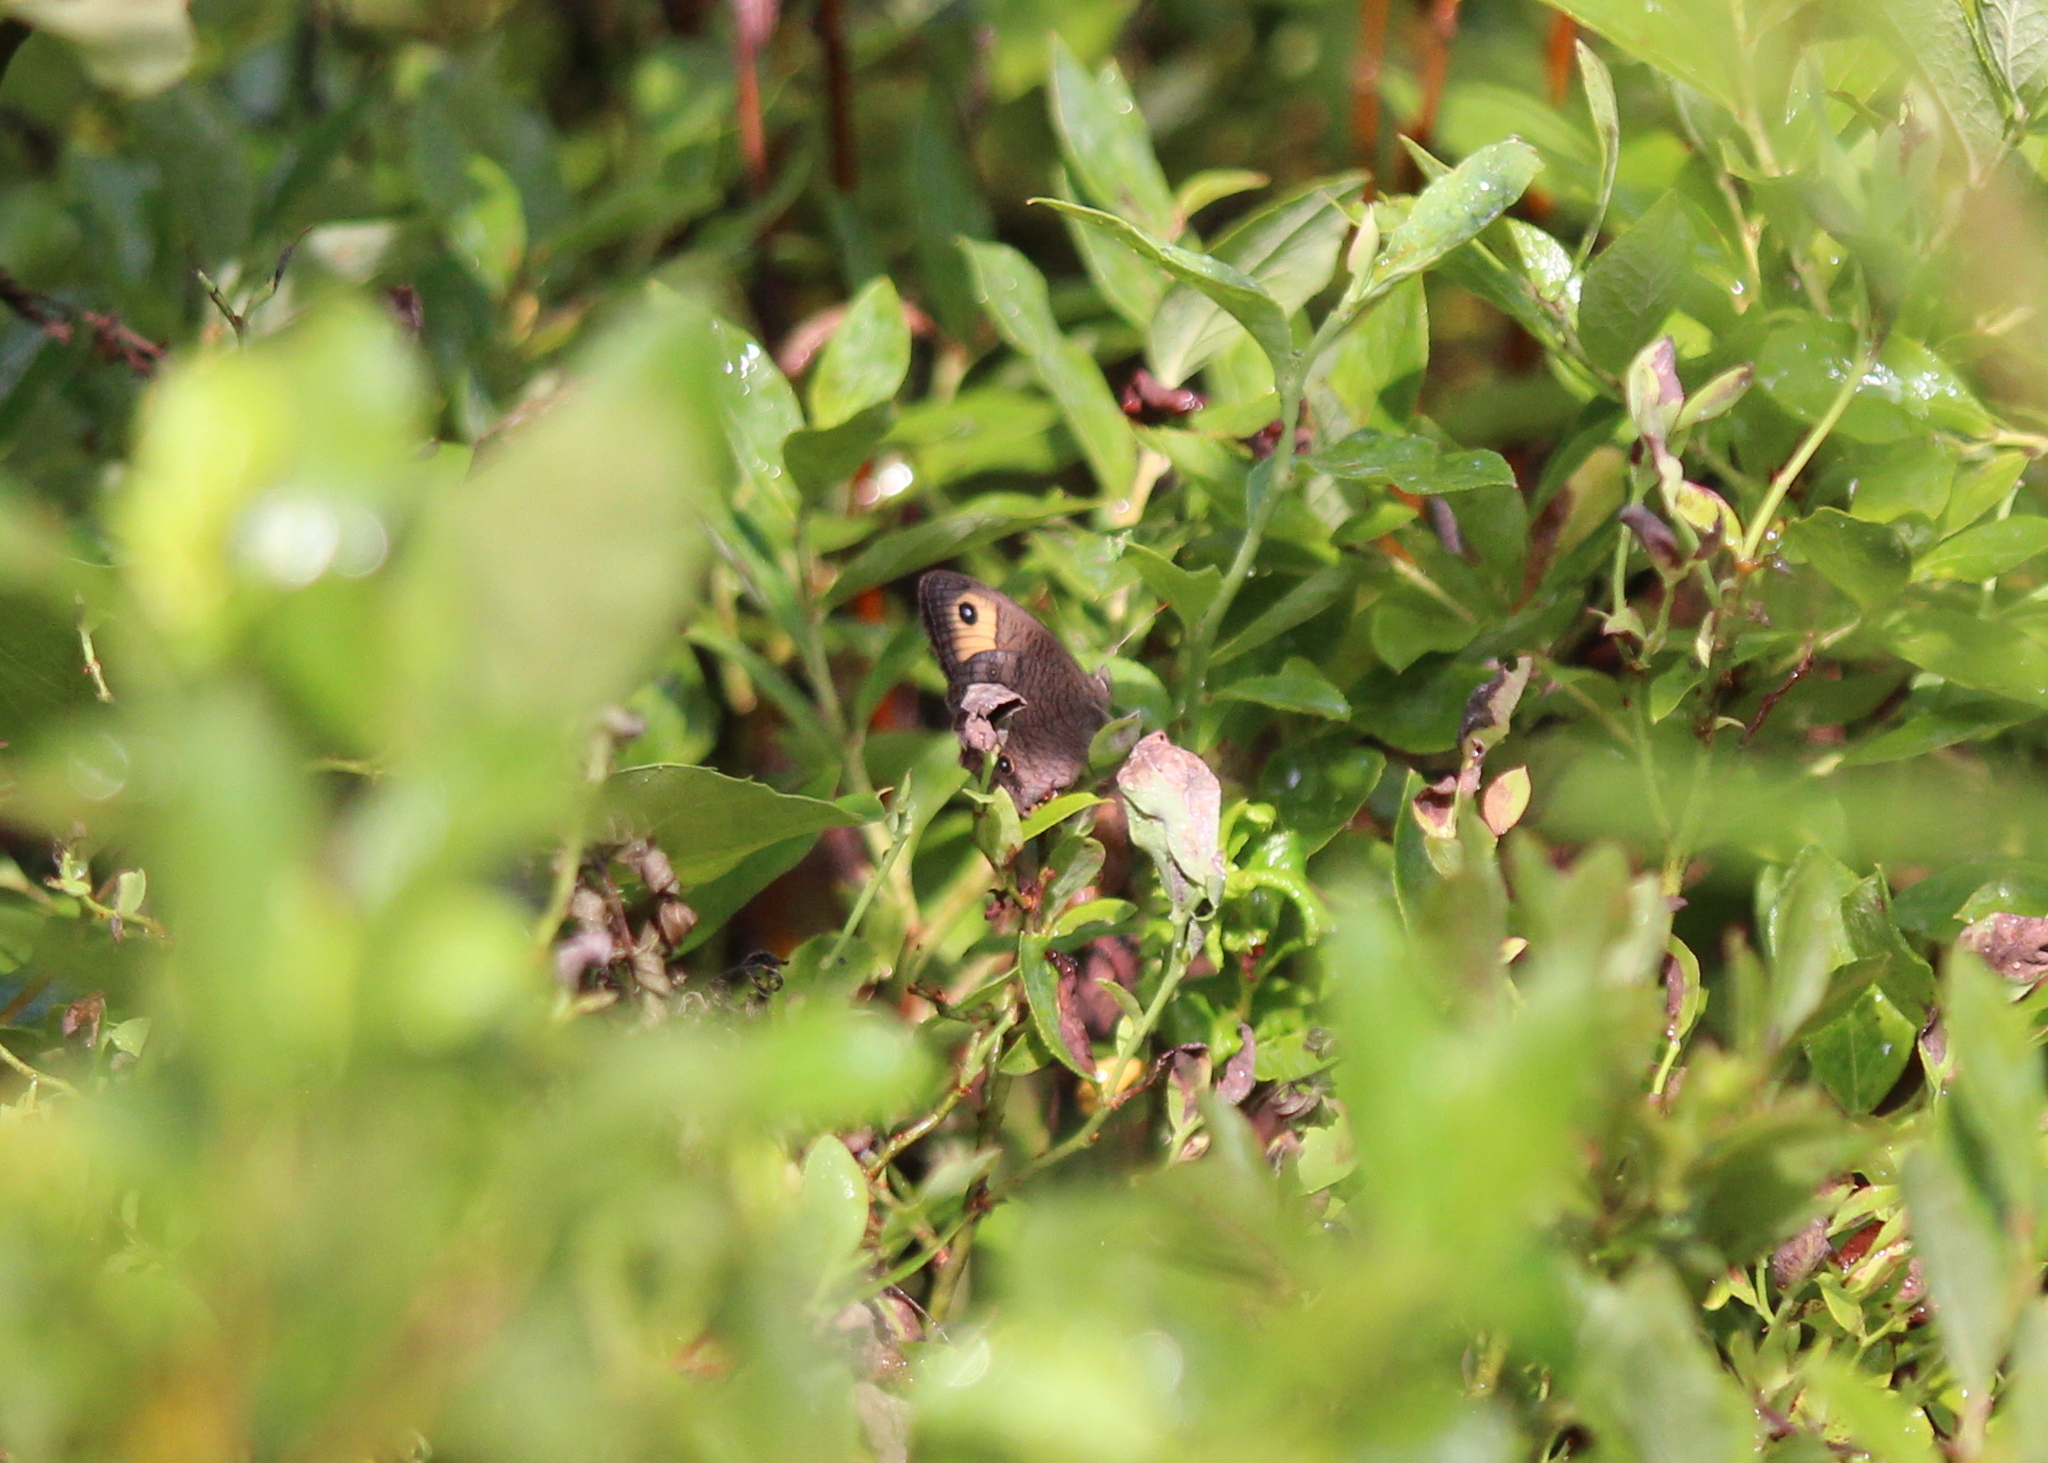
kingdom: Animalia
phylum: Arthropoda
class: Insecta
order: Lepidoptera
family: Nymphalidae
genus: Cercyonis
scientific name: Cercyonis pegala
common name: Common wood-nymph
